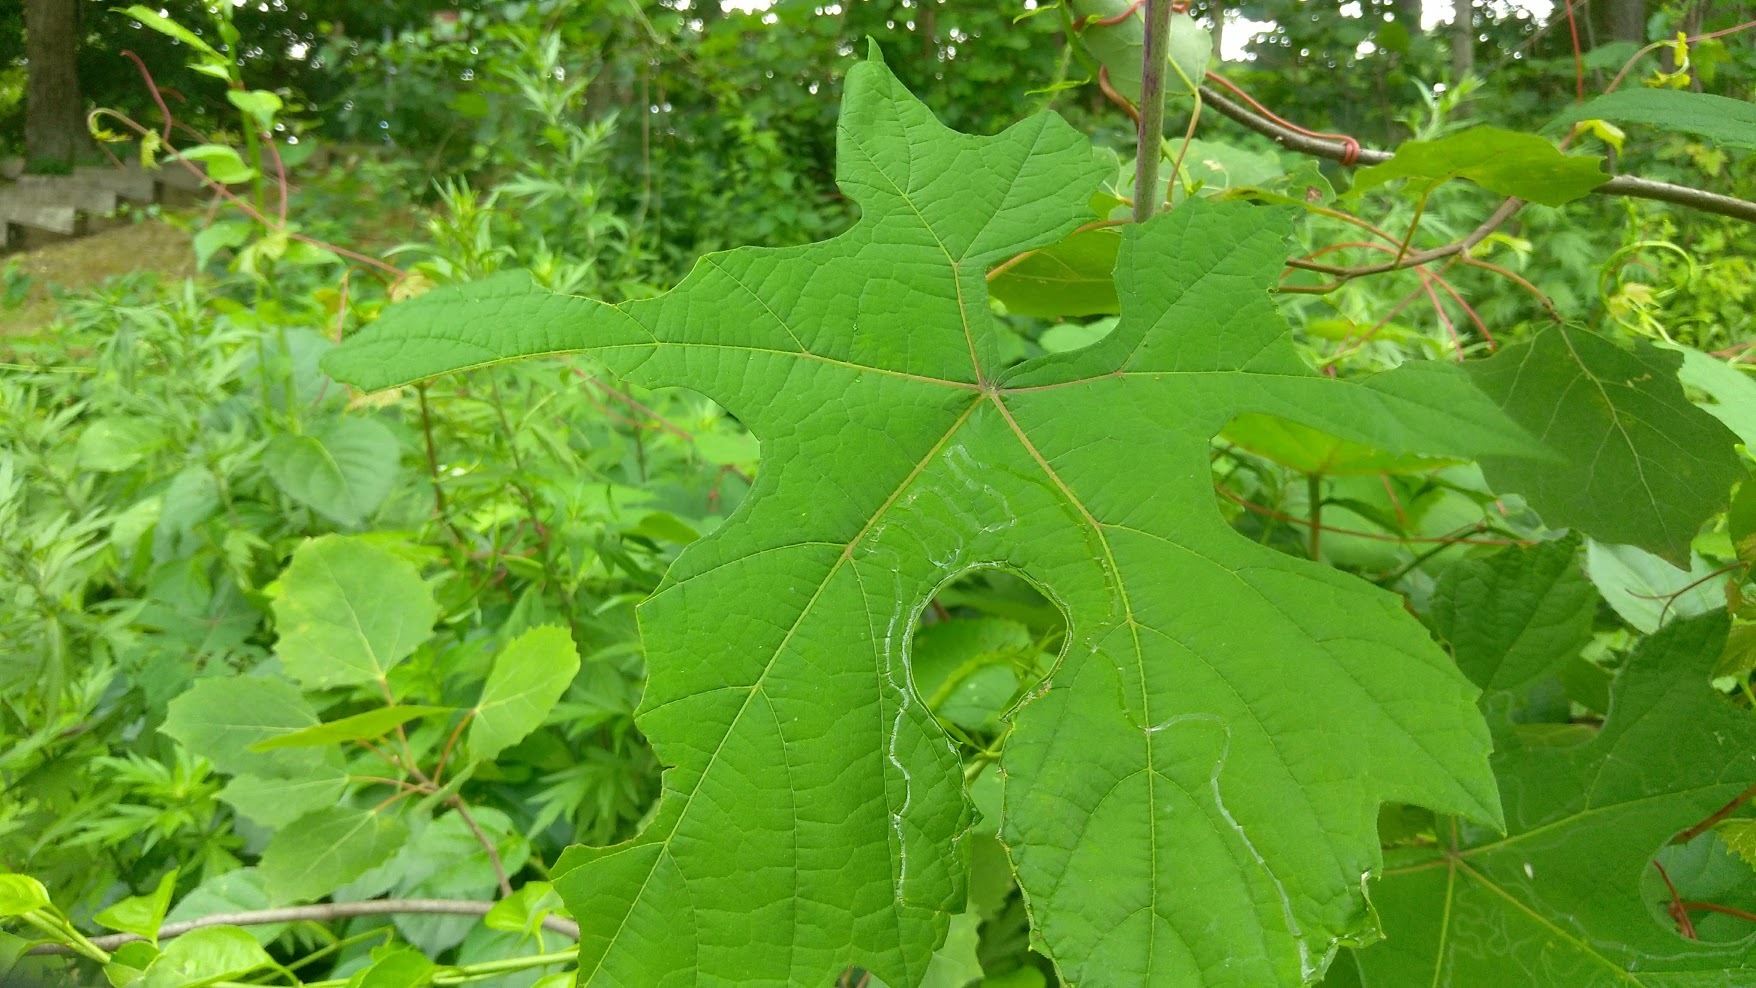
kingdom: Animalia
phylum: Arthropoda
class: Insecta
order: Lepidoptera
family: Gracillariidae
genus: Phyllocnistis
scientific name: Phyllocnistis vitegenella
